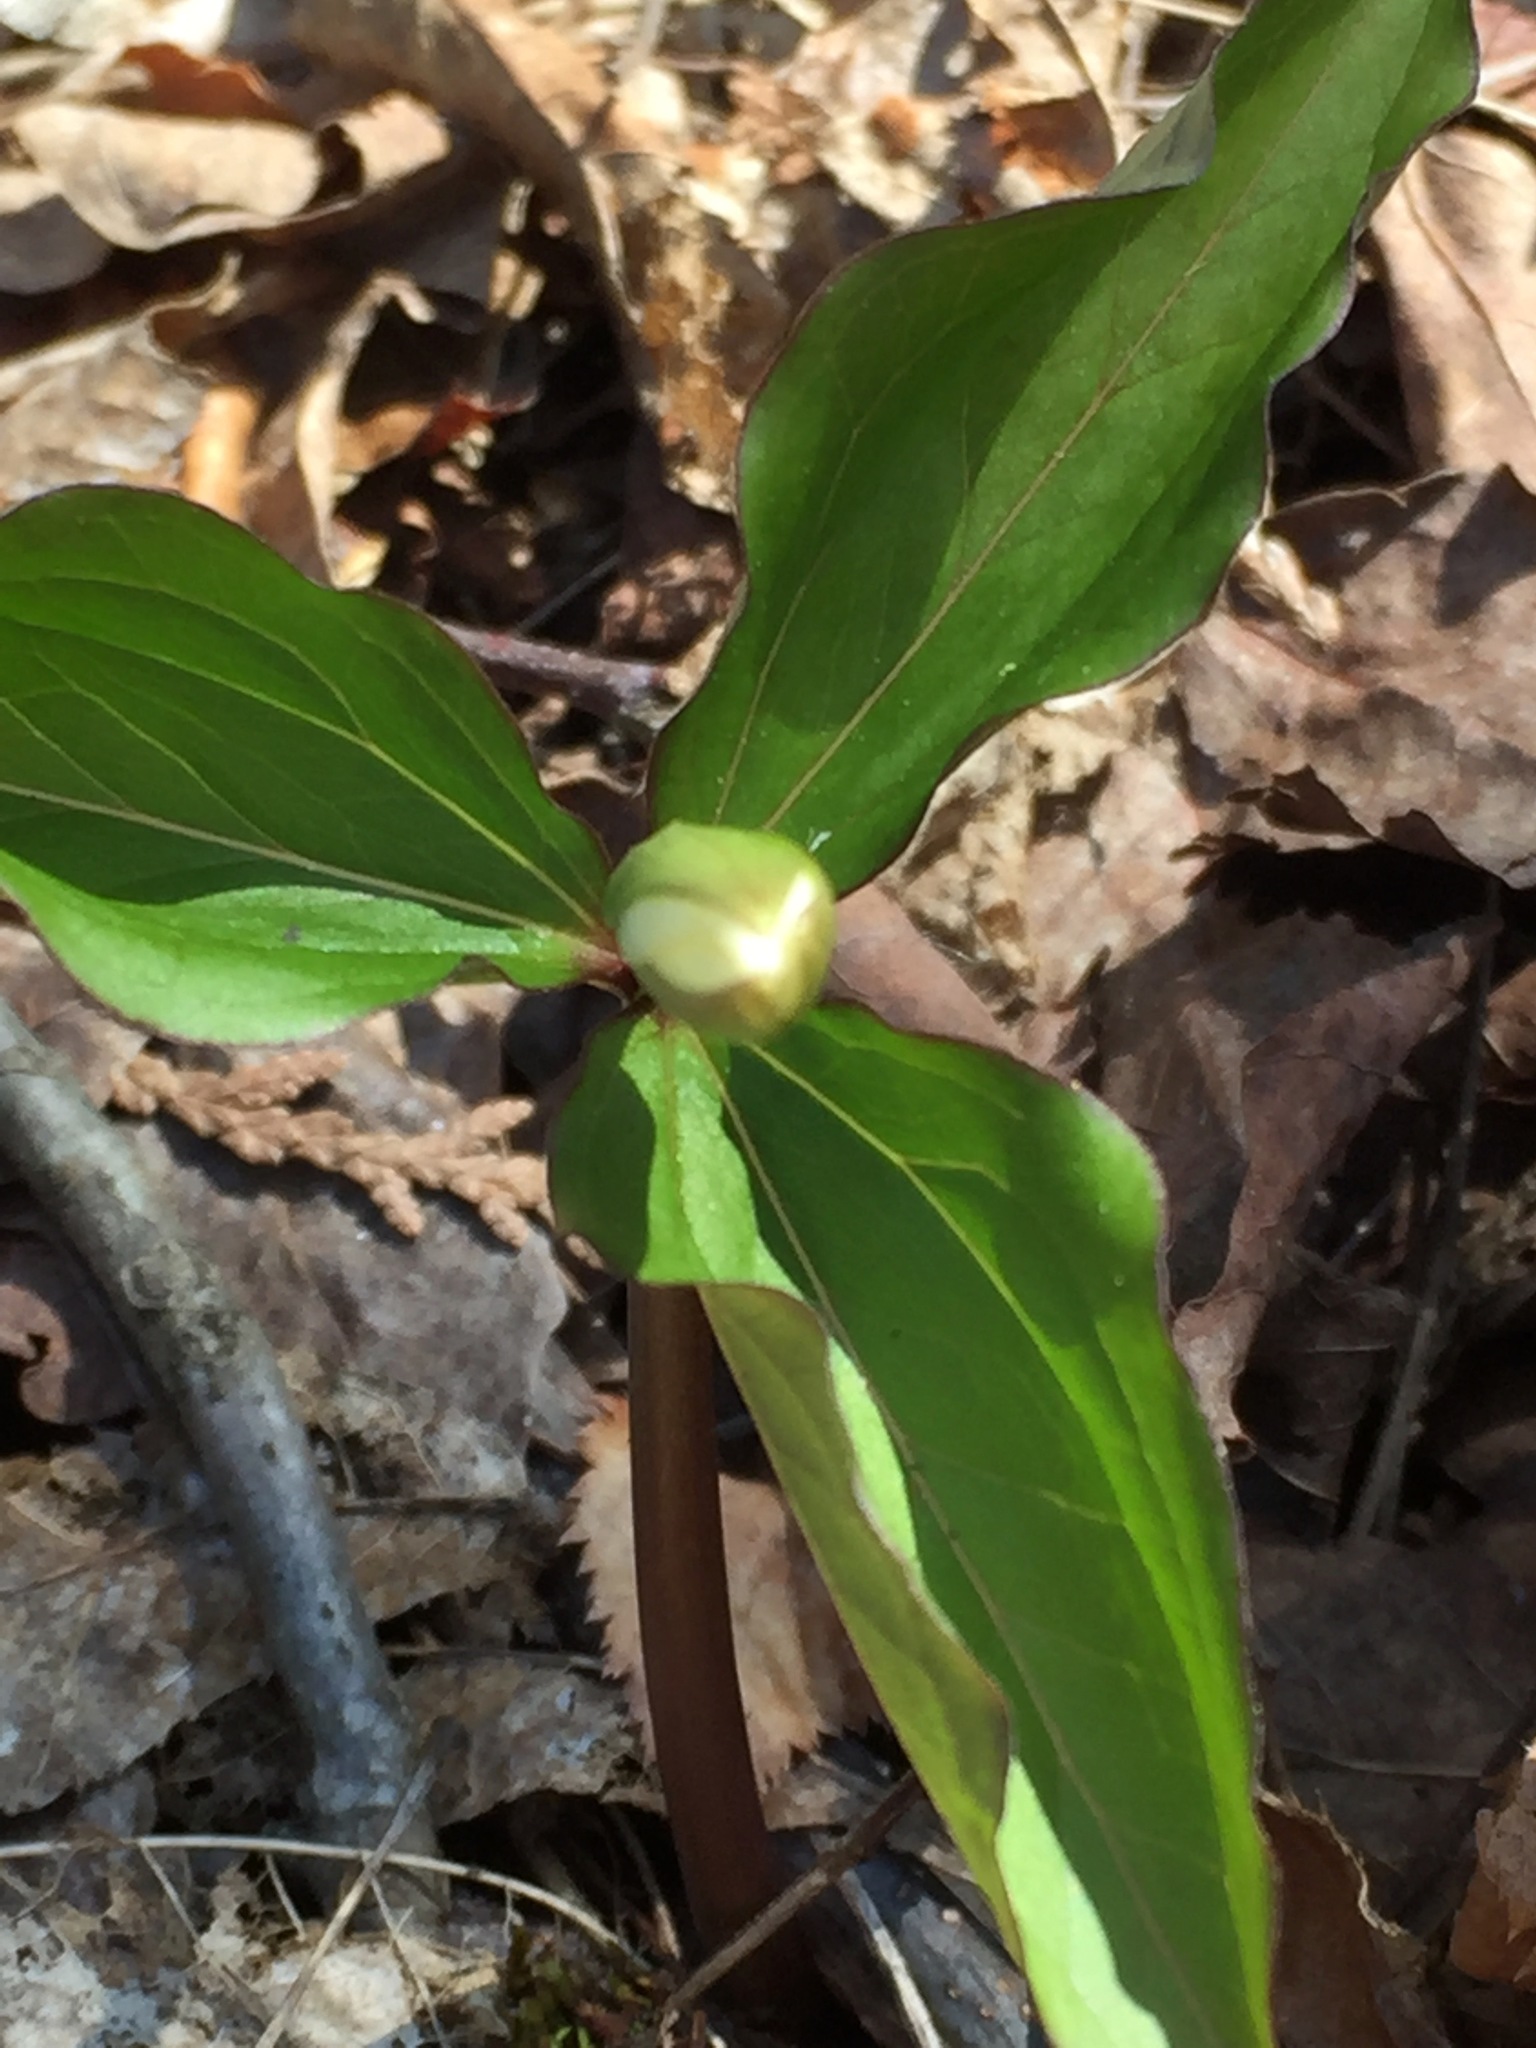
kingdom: Plantae
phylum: Tracheophyta
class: Liliopsida
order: Liliales
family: Melanthiaceae
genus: Trillium
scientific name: Trillium grandiflorum
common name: Great white trillium
